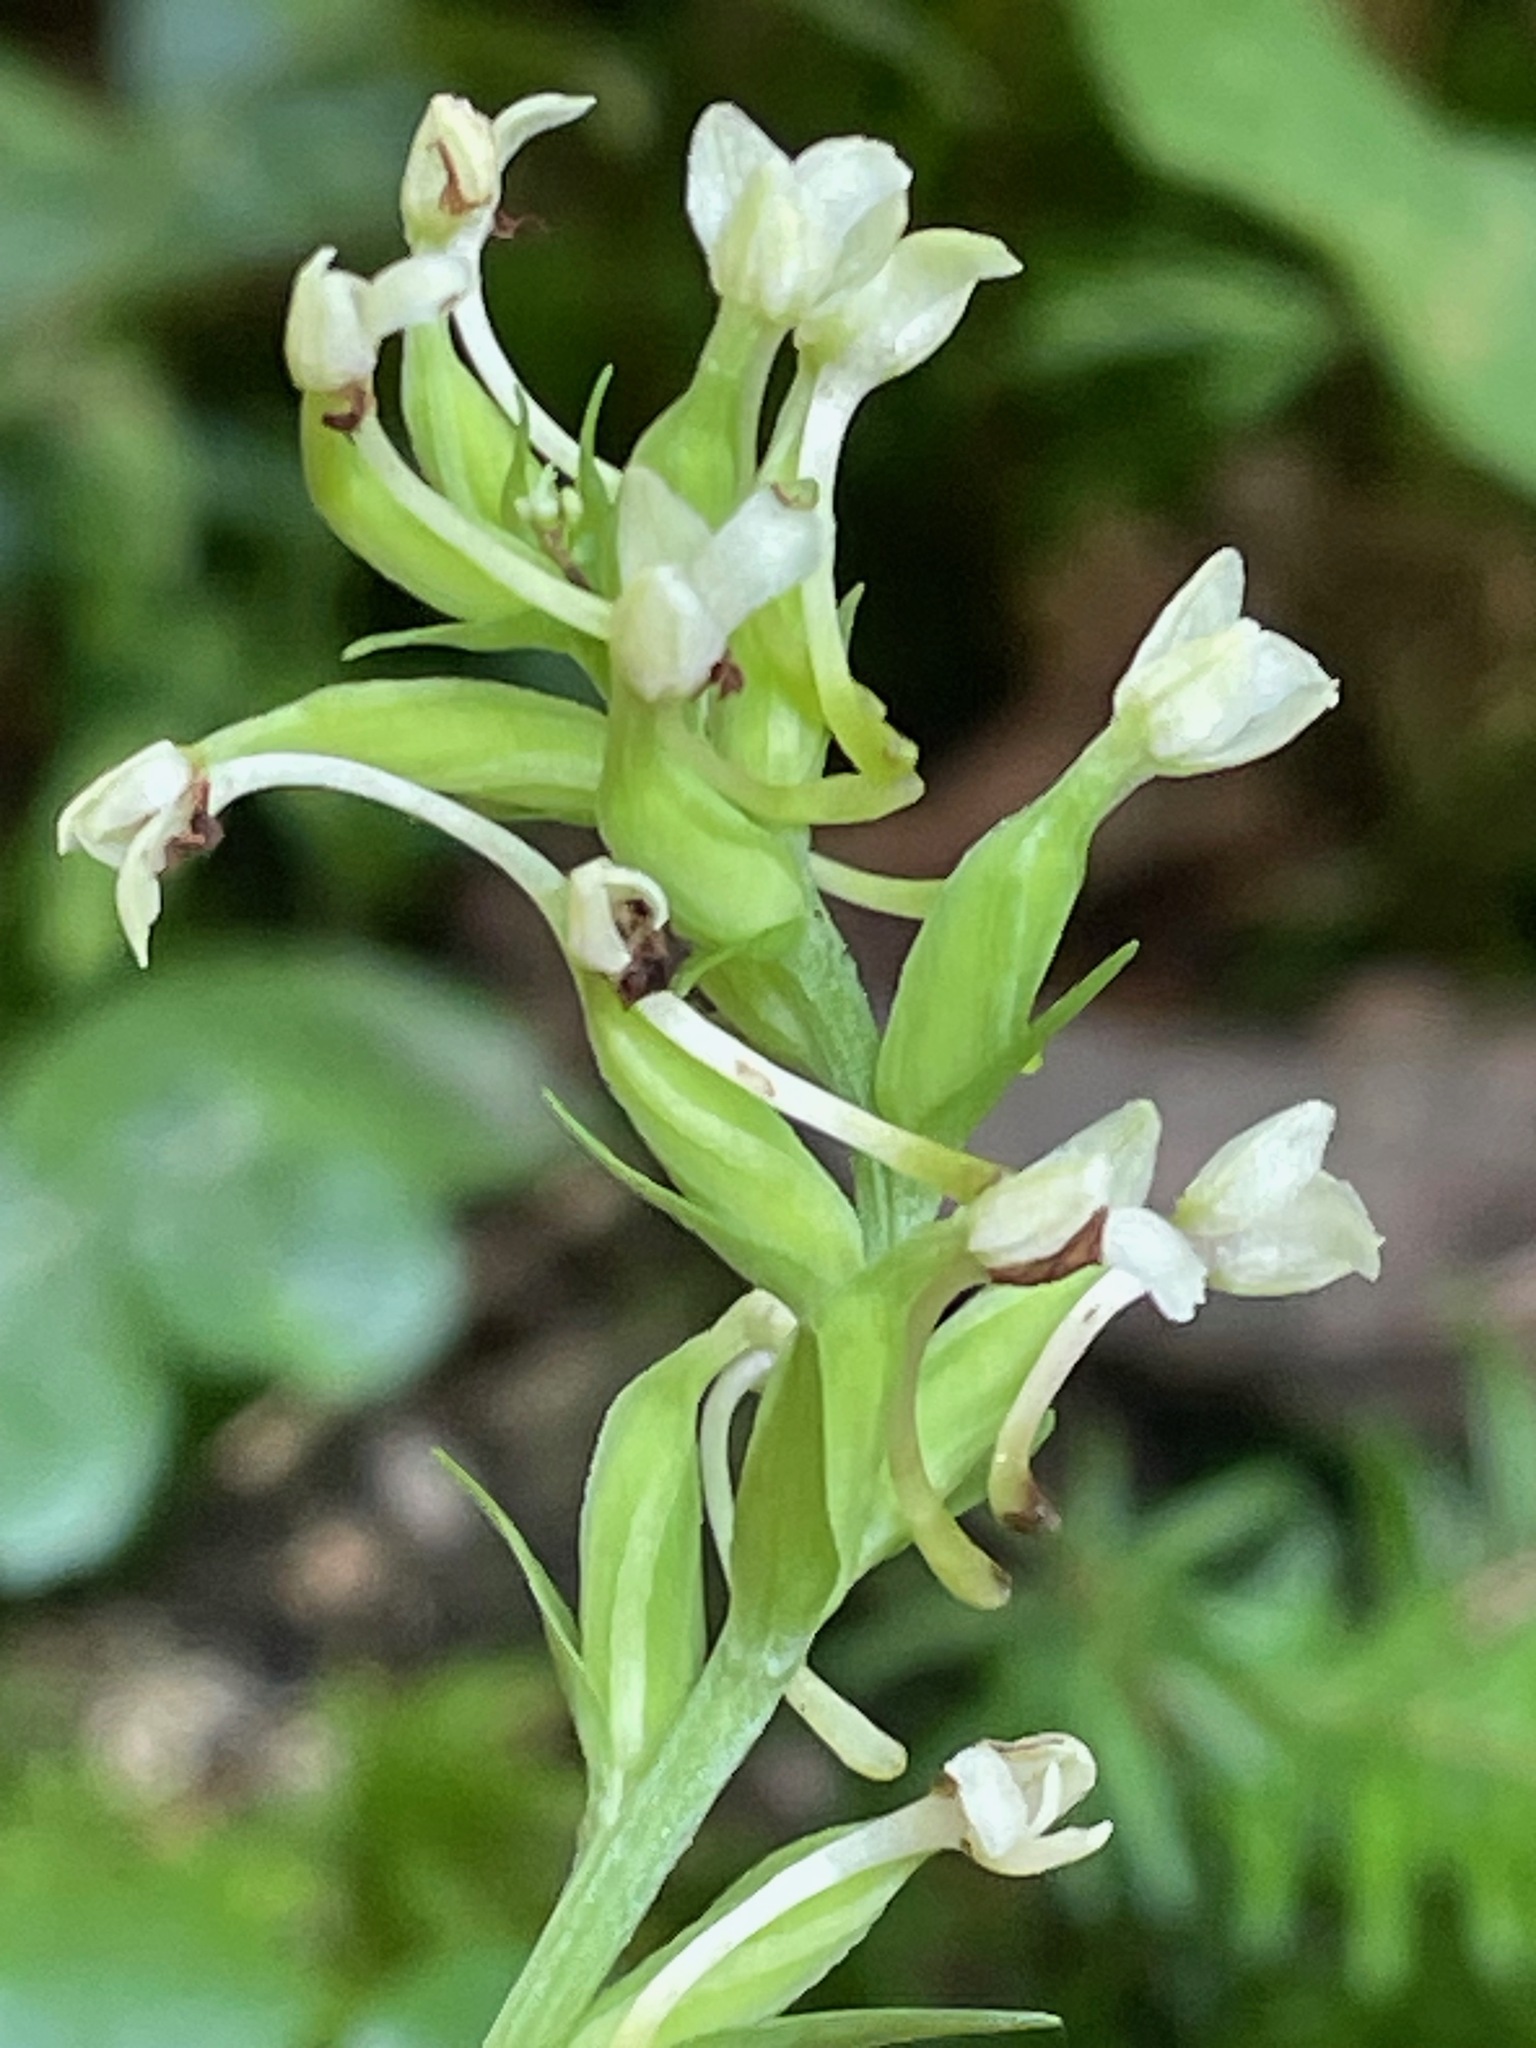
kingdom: Plantae
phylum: Tracheophyta
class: Liliopsida
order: Asparagales
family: Orchidaceae
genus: Platanthera
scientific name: Platanthera clavellata
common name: Club-spur orchid
